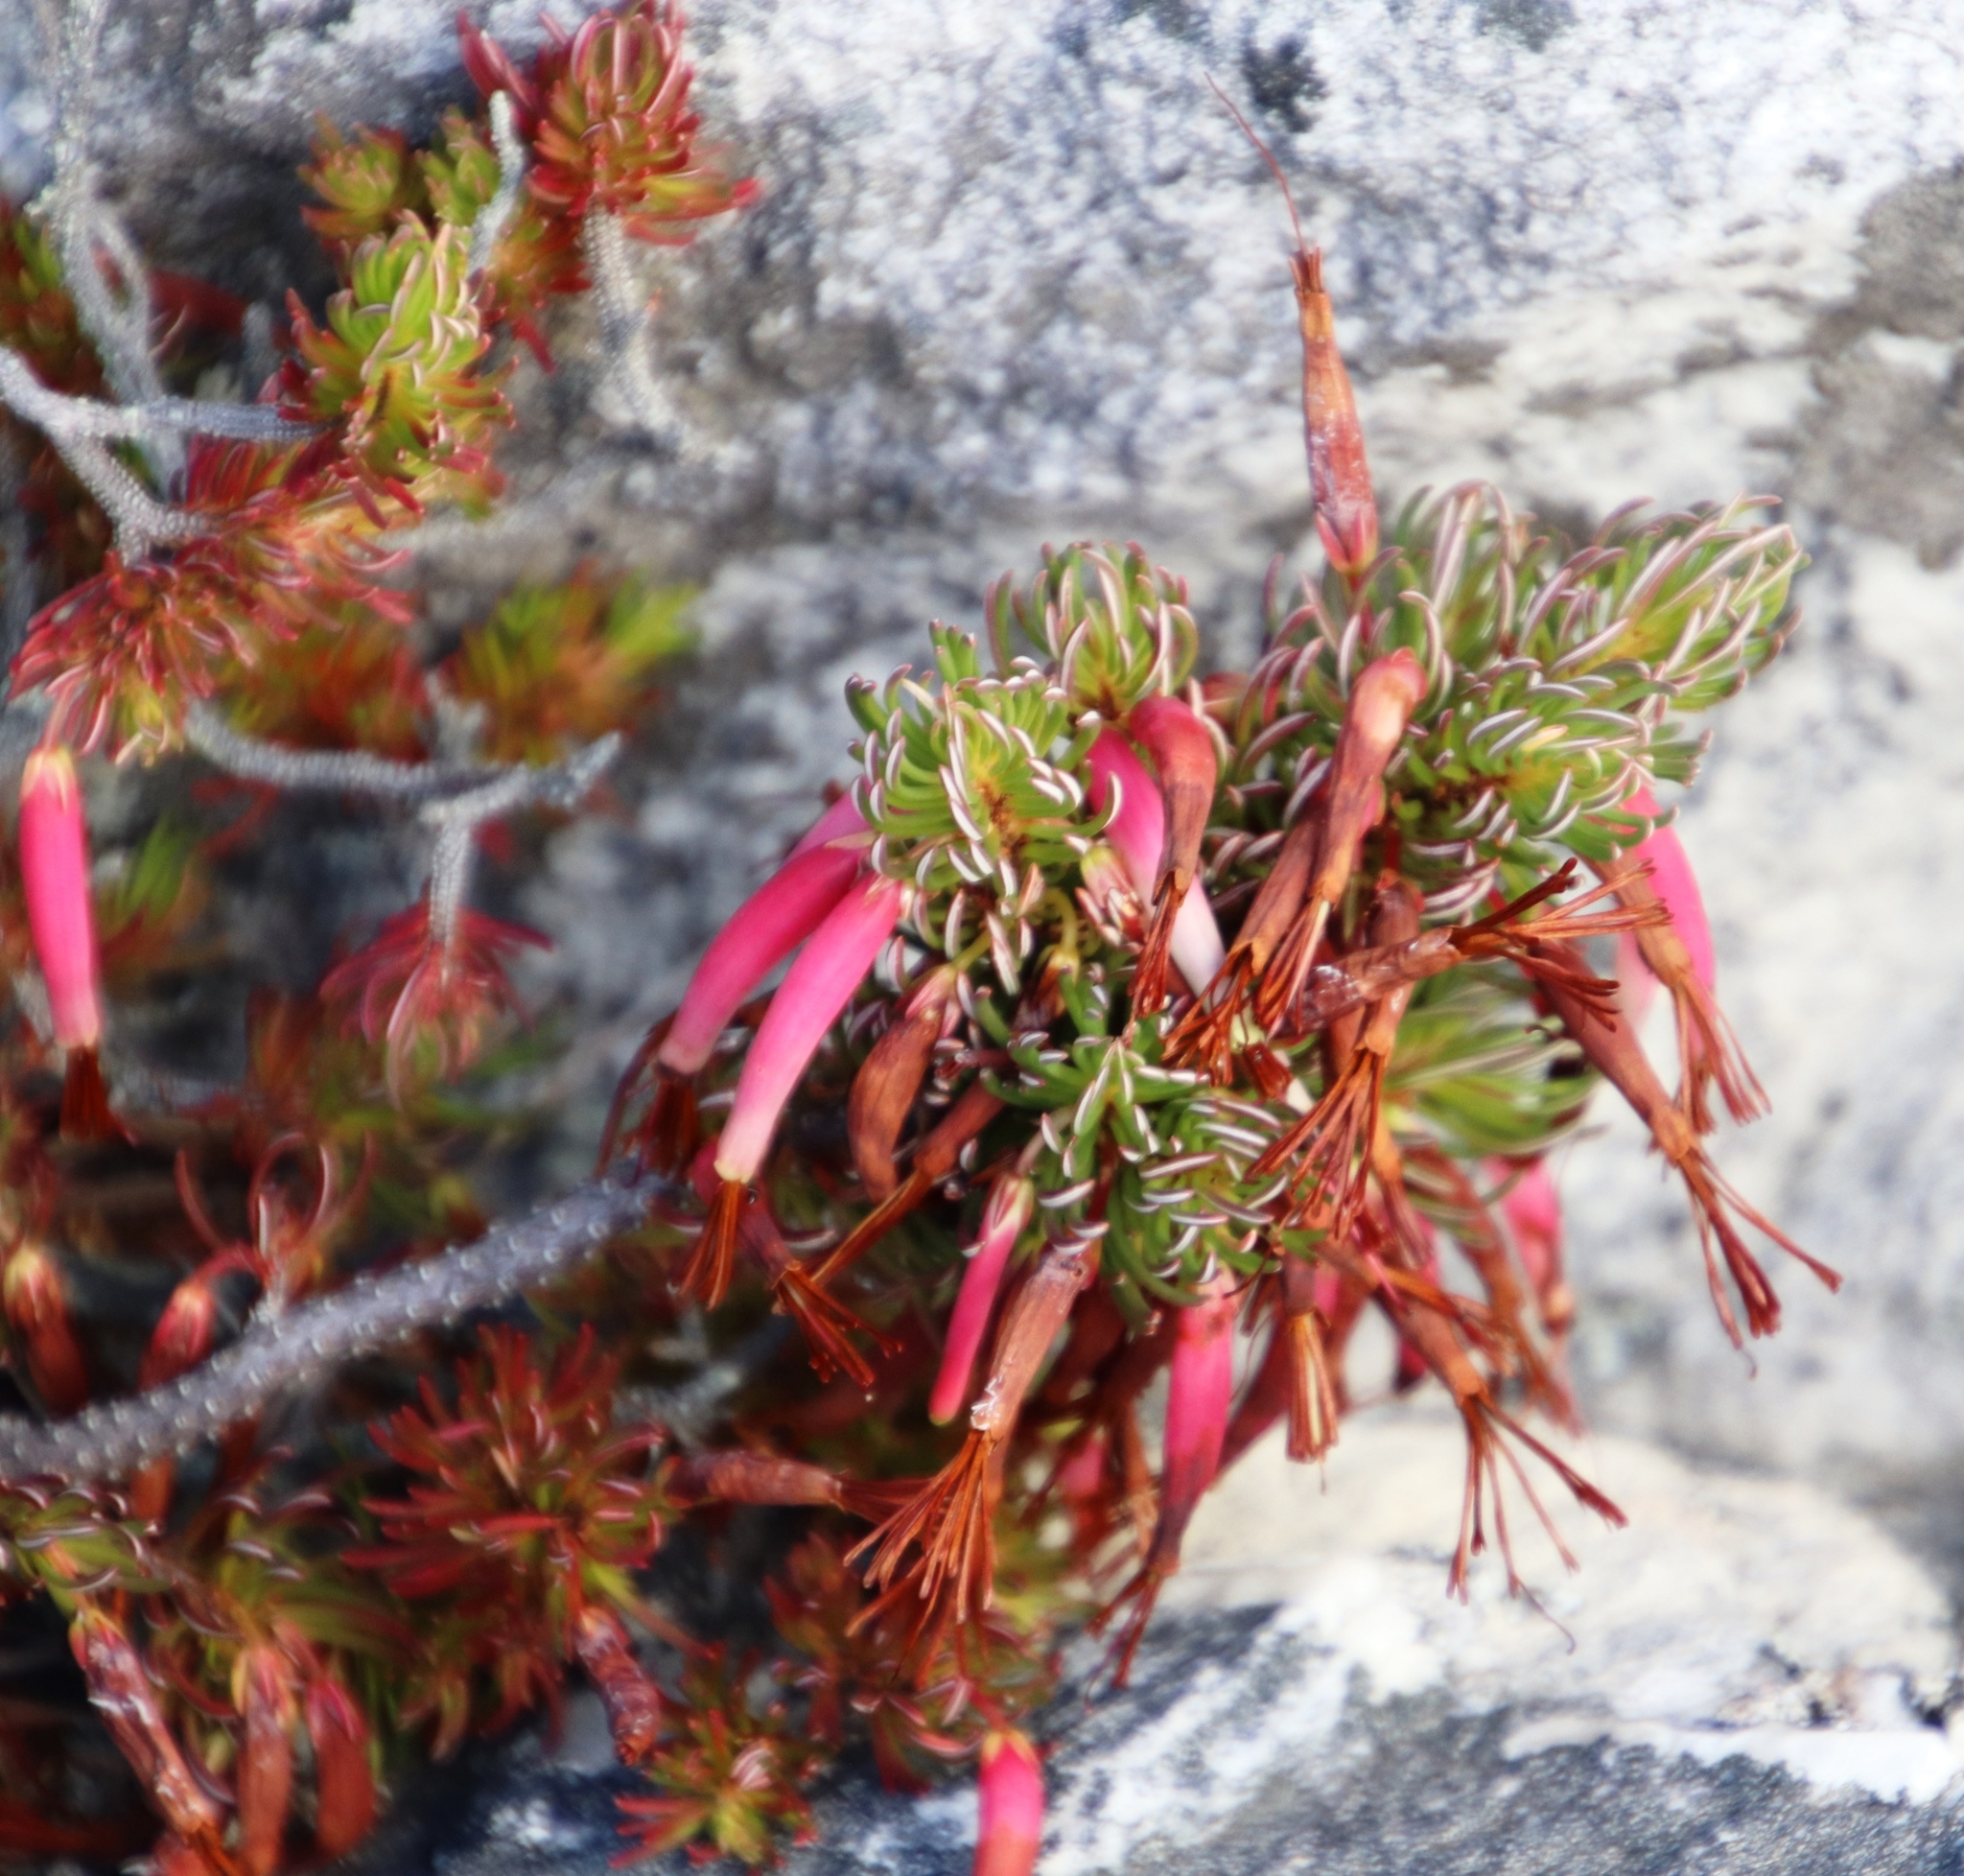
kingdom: Plantae
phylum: Tracheophyta
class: Magnoliopsida
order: Ericales
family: Ericaceae
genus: Erica
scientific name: Erica plukenetii
